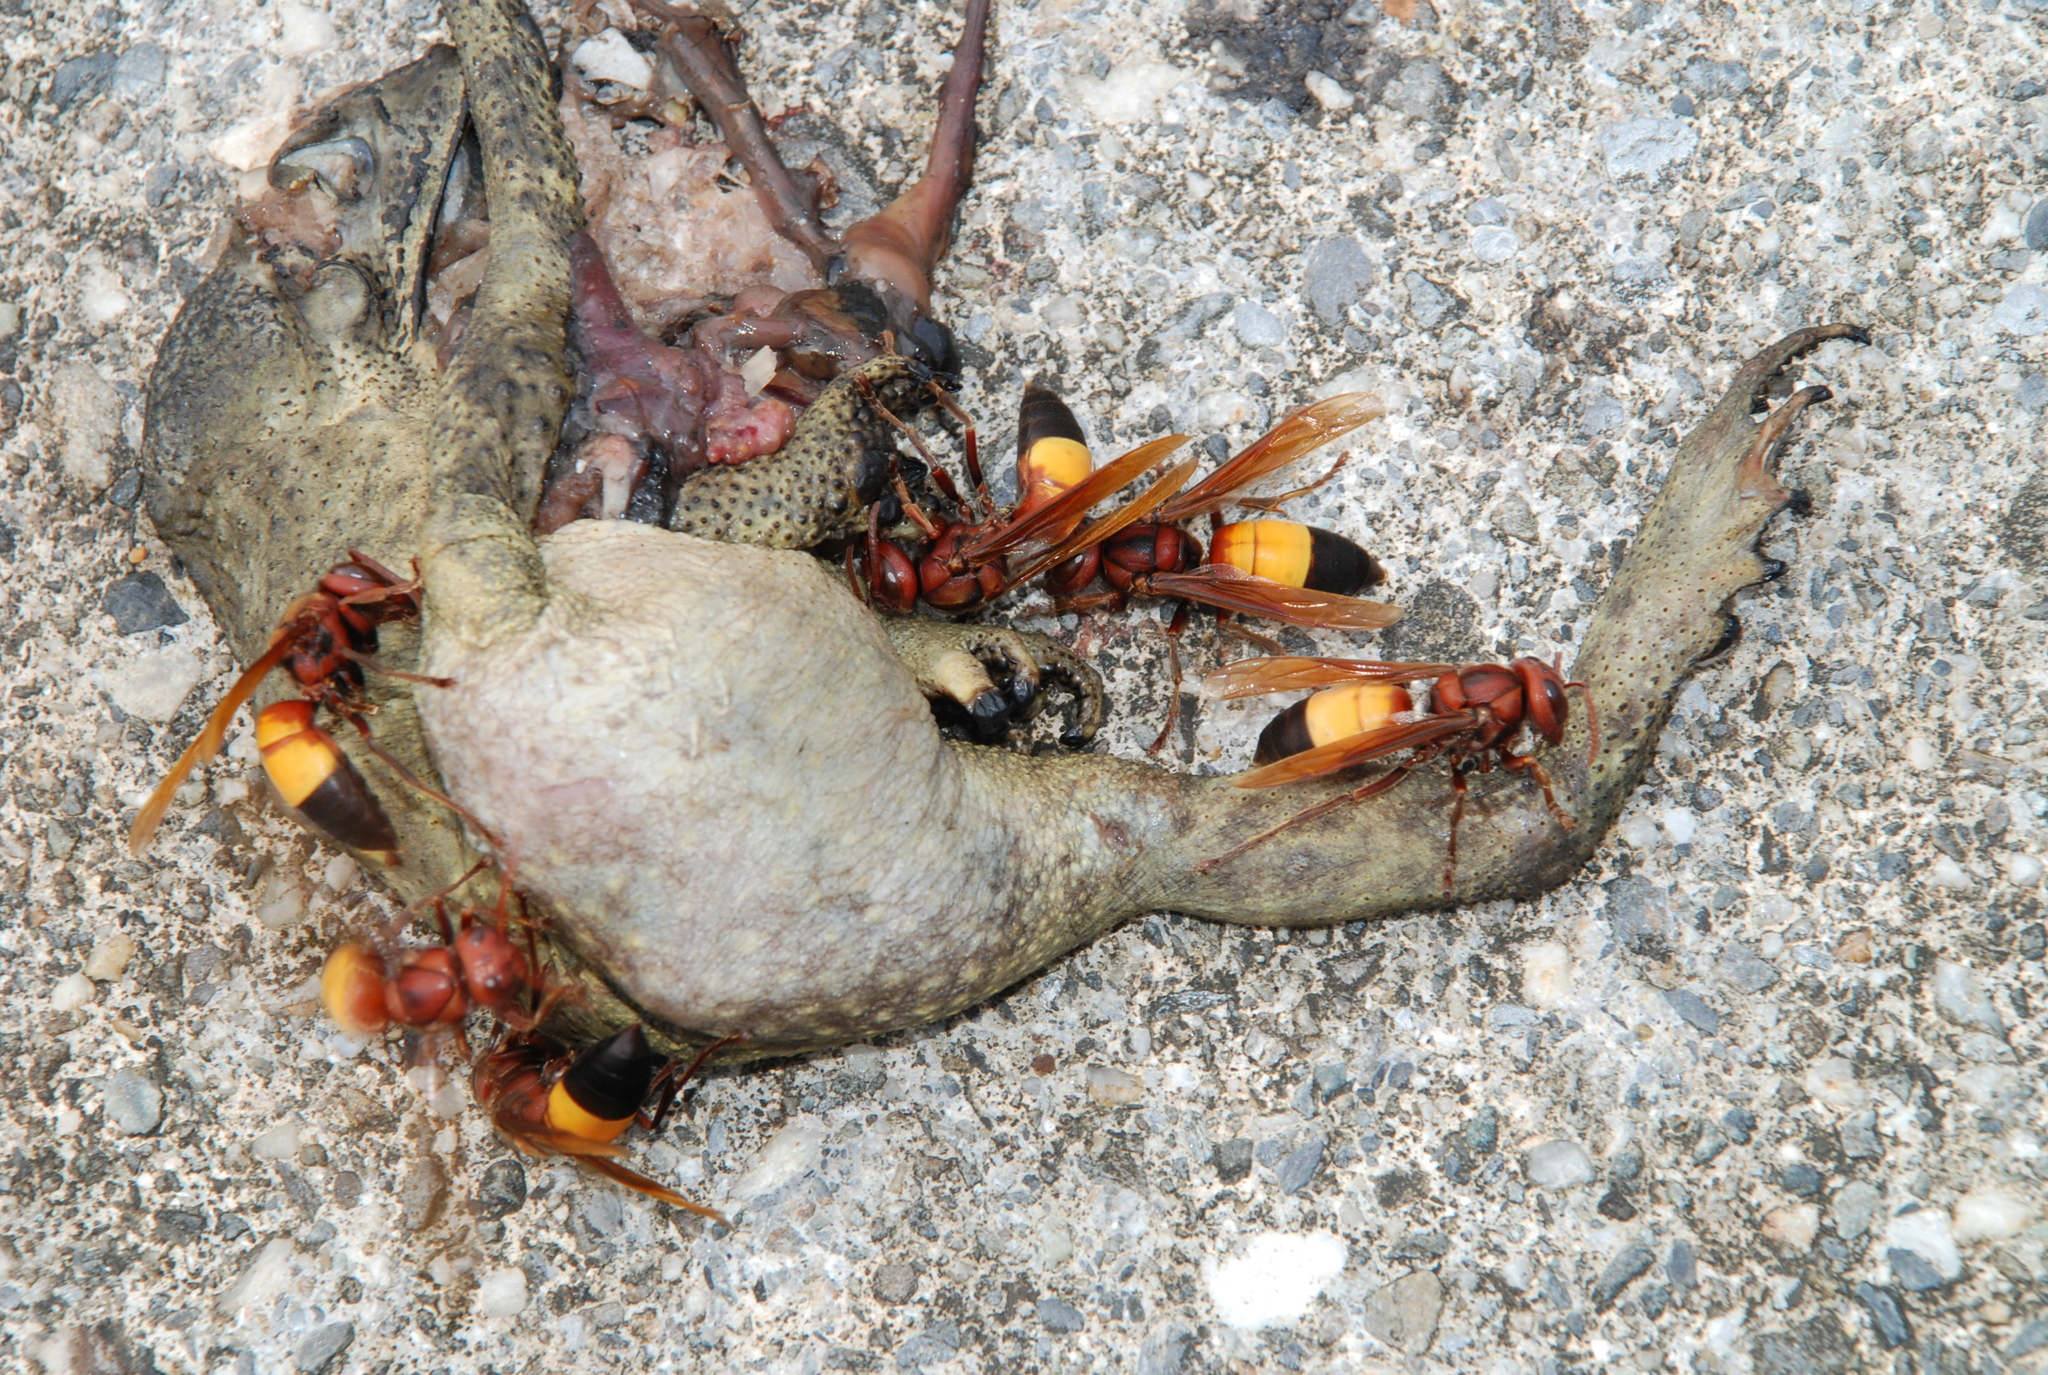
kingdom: Animalia
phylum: Arthropoda
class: Insecta
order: Hymenoptera
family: Vespidae
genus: Vespa
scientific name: Vespa affinis
